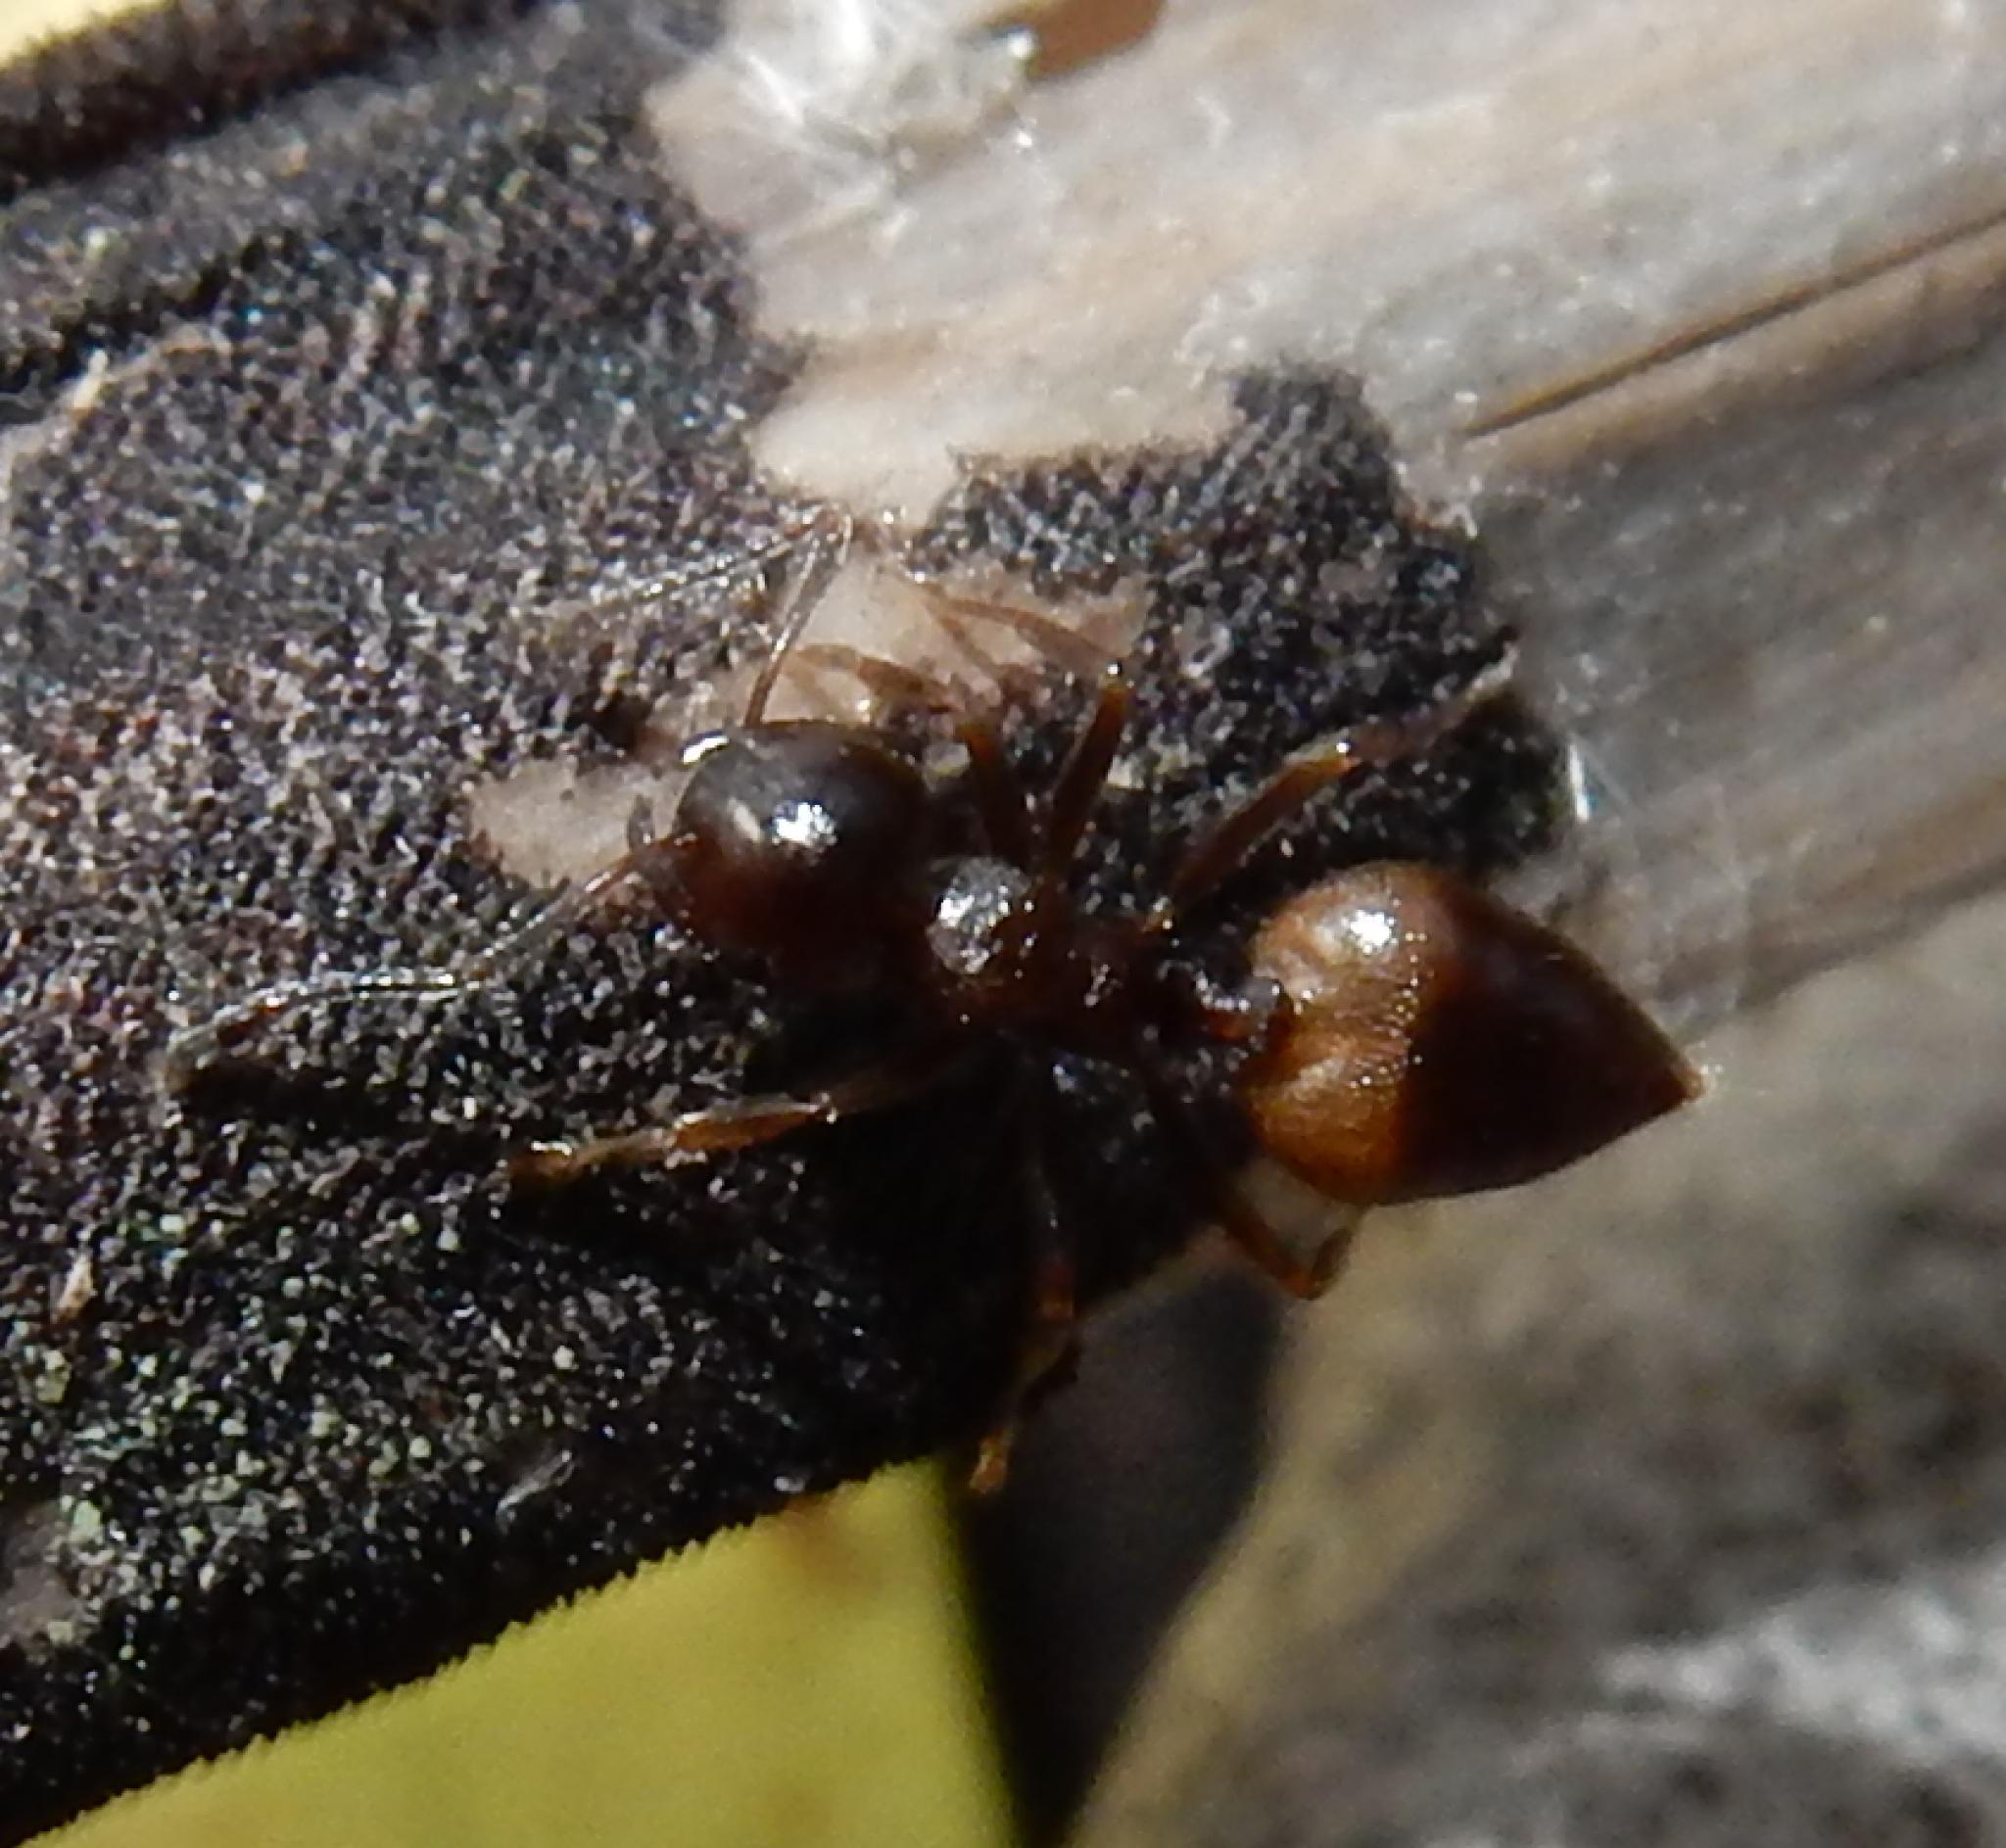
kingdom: Animalia
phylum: Arthropoda
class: Insecta
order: Hymenoptera
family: Formicidae
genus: Crematogaster
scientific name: Crematogaster amita
